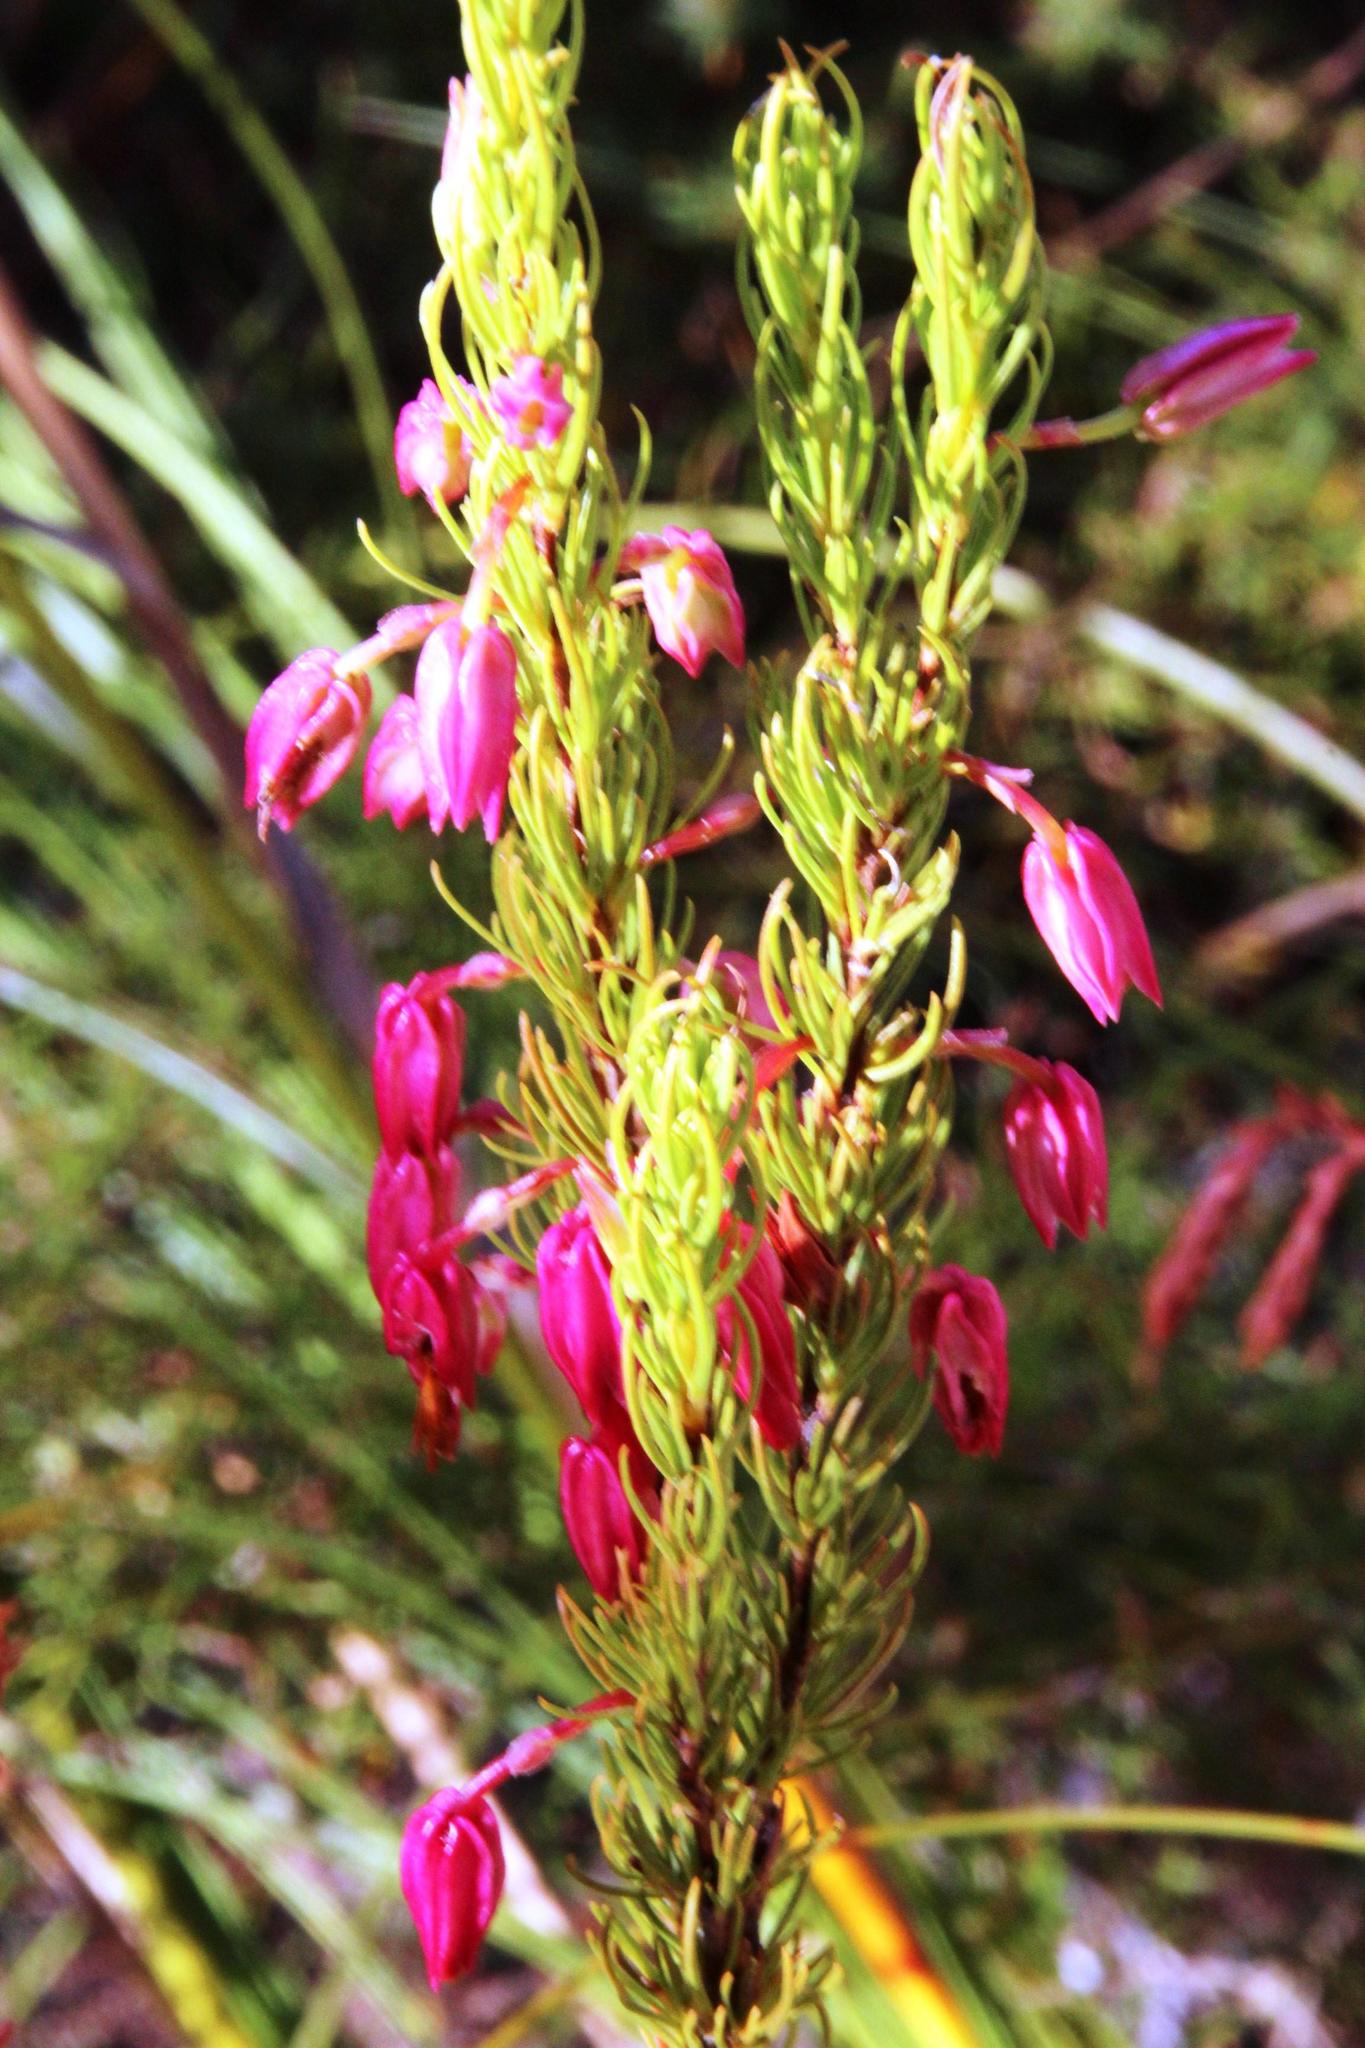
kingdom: Plantae
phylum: Tracheophyta
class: Magnoliopsida
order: Ericales
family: Ericaceae
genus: Erica
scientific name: Erica plukenetii
